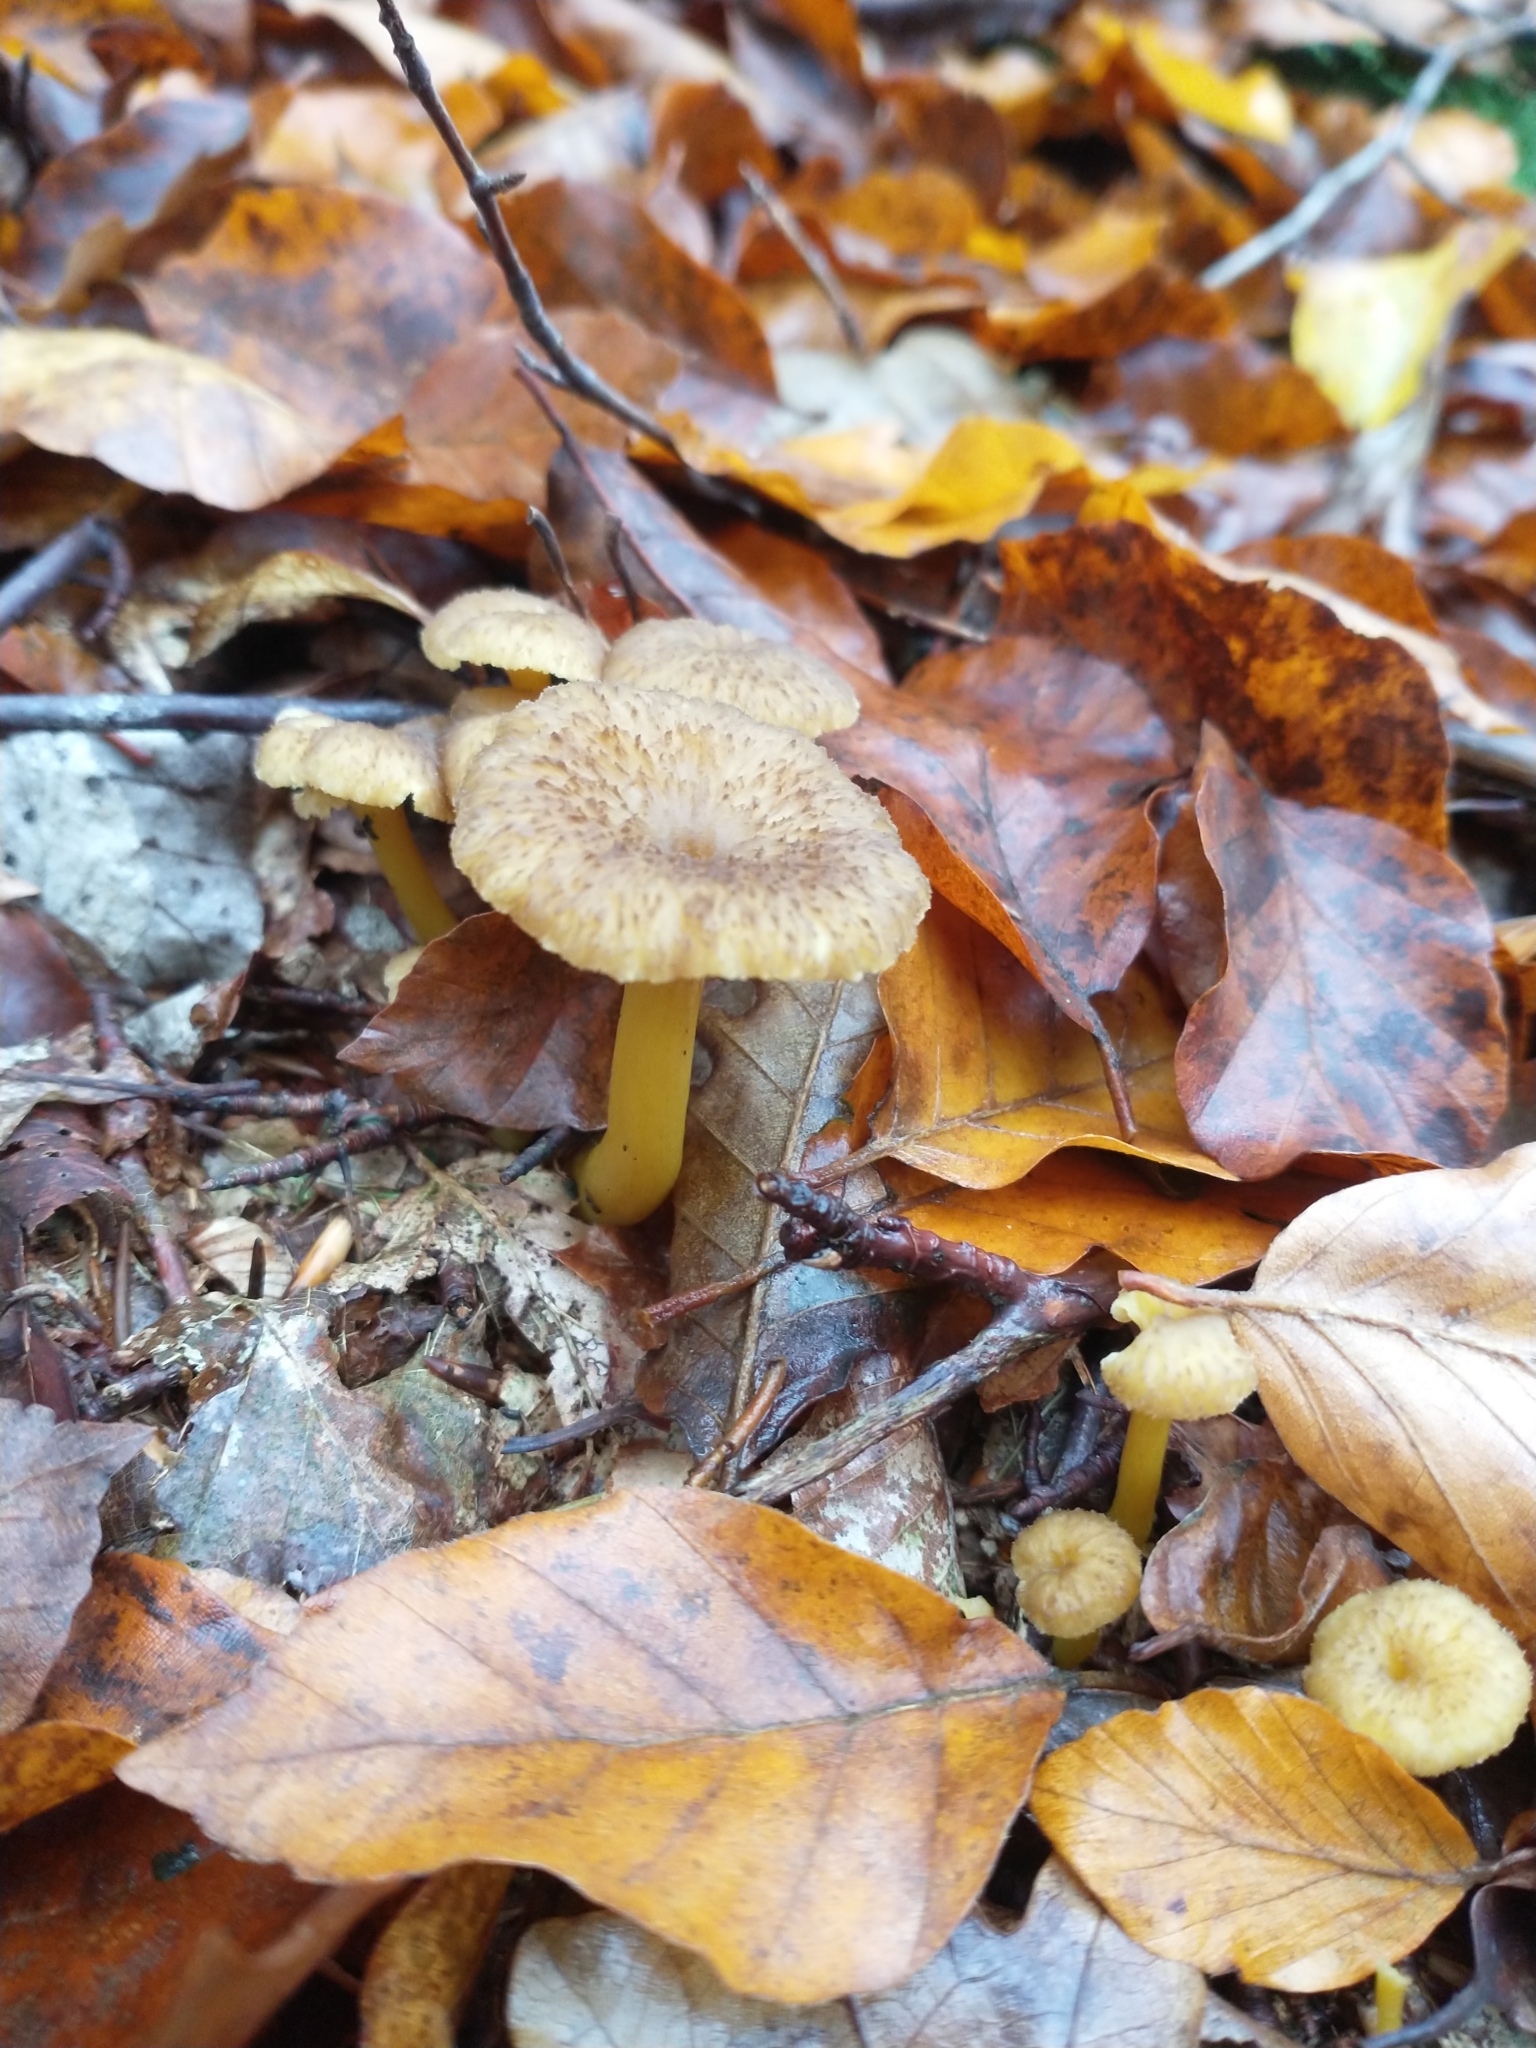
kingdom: Fungi
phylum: Basidiomycota
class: Agaricomycetes
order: Cantharellales
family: Hydnaceae
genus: Craterellus
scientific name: Craterellus tubaeformis
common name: Yellowfoot
